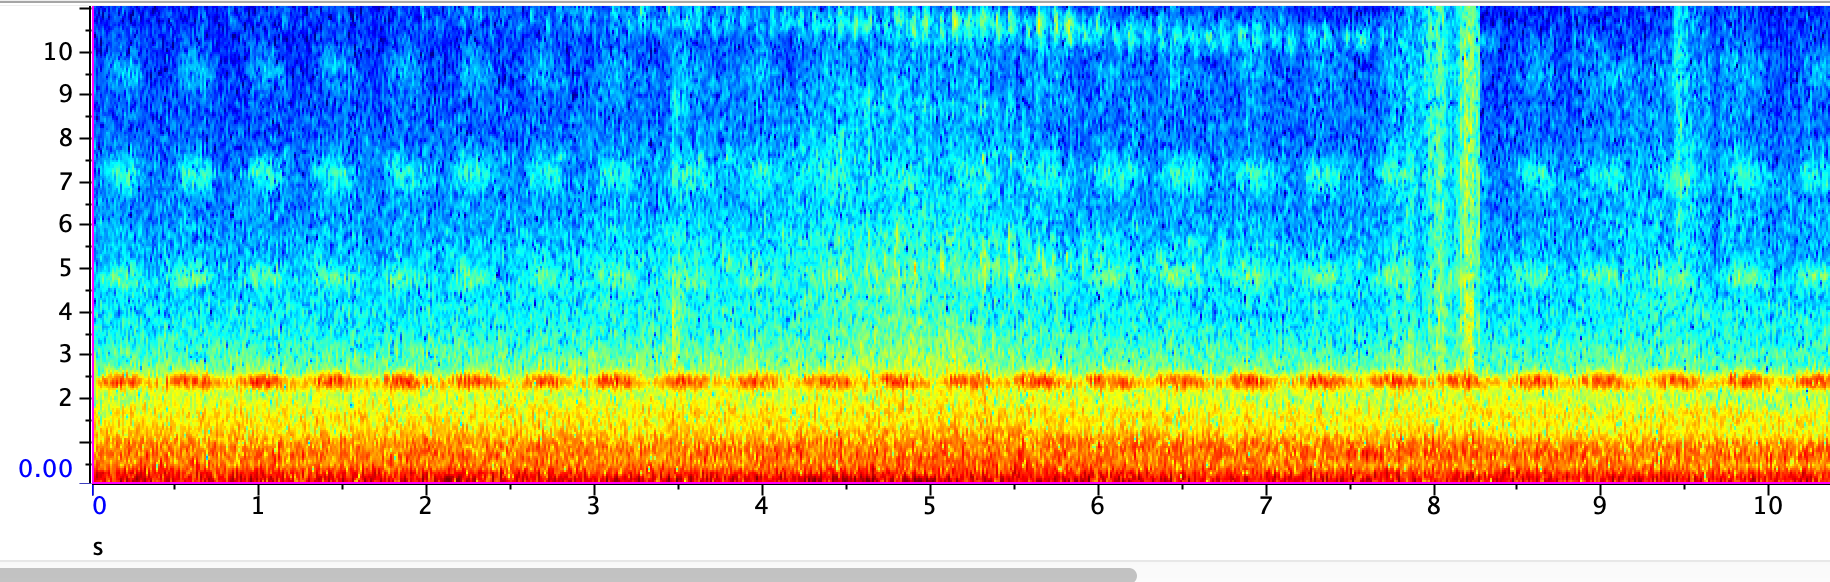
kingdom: Animalia
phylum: Arthropoda
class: Insecta
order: Orthoptera
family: Gryllidae
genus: Oecanthus
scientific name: Oecanthus fultoni
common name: Snowy tree cricket
